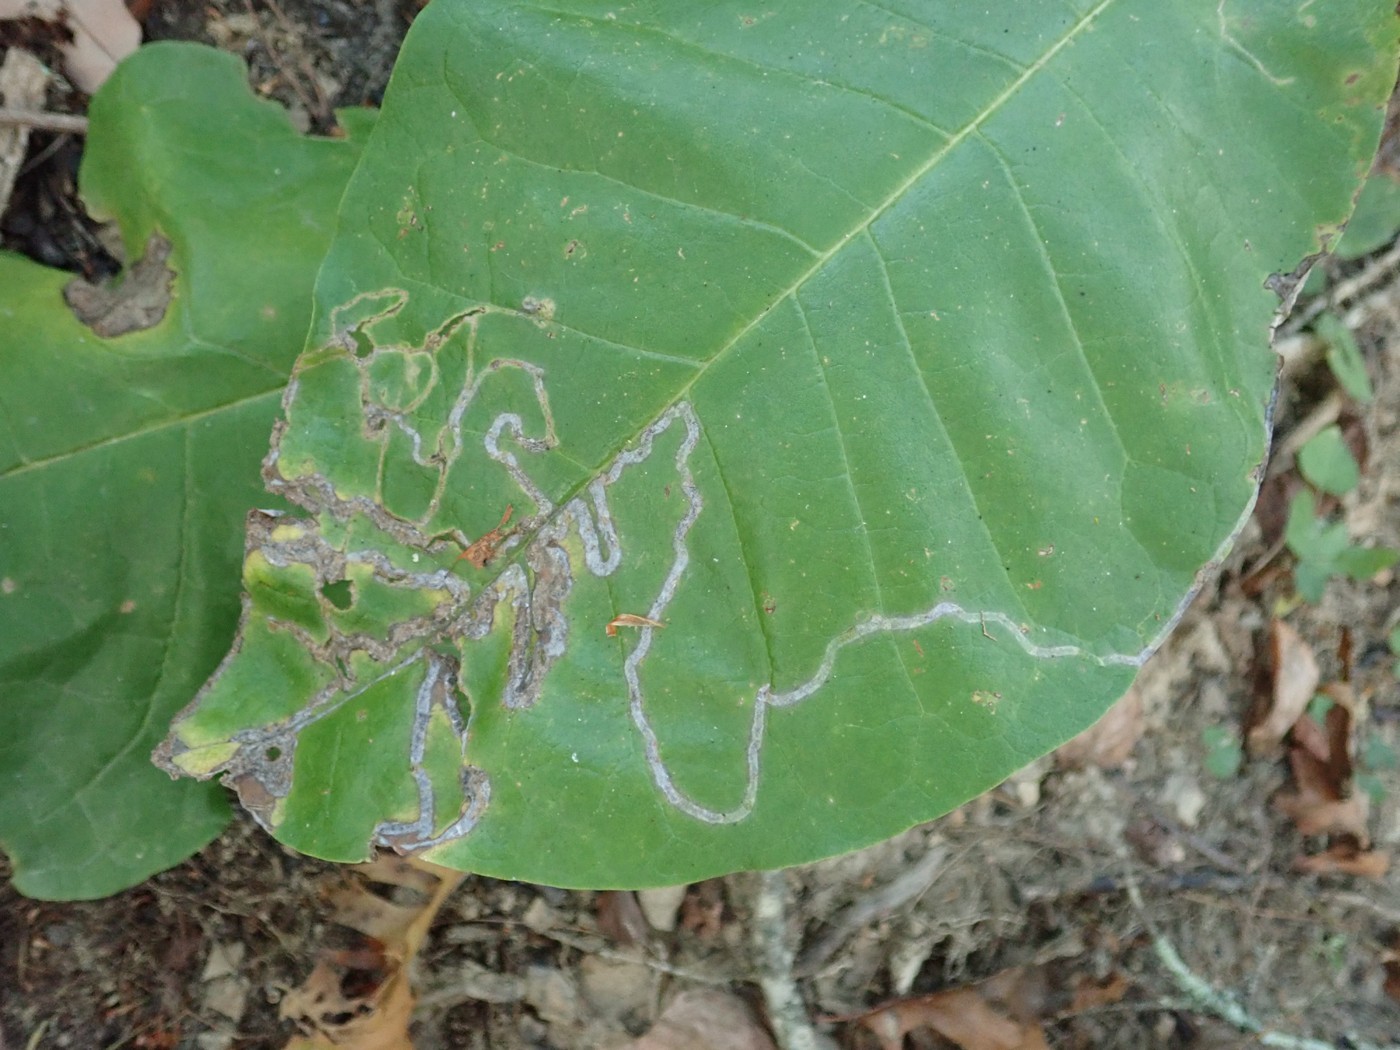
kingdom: Animalia
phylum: Arthropoda
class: Insecta
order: Lepidoptera
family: Gracillariidae
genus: Phyllocnistis
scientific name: Phyllocnistis liriodendronella
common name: Tulip tree leaf miner
